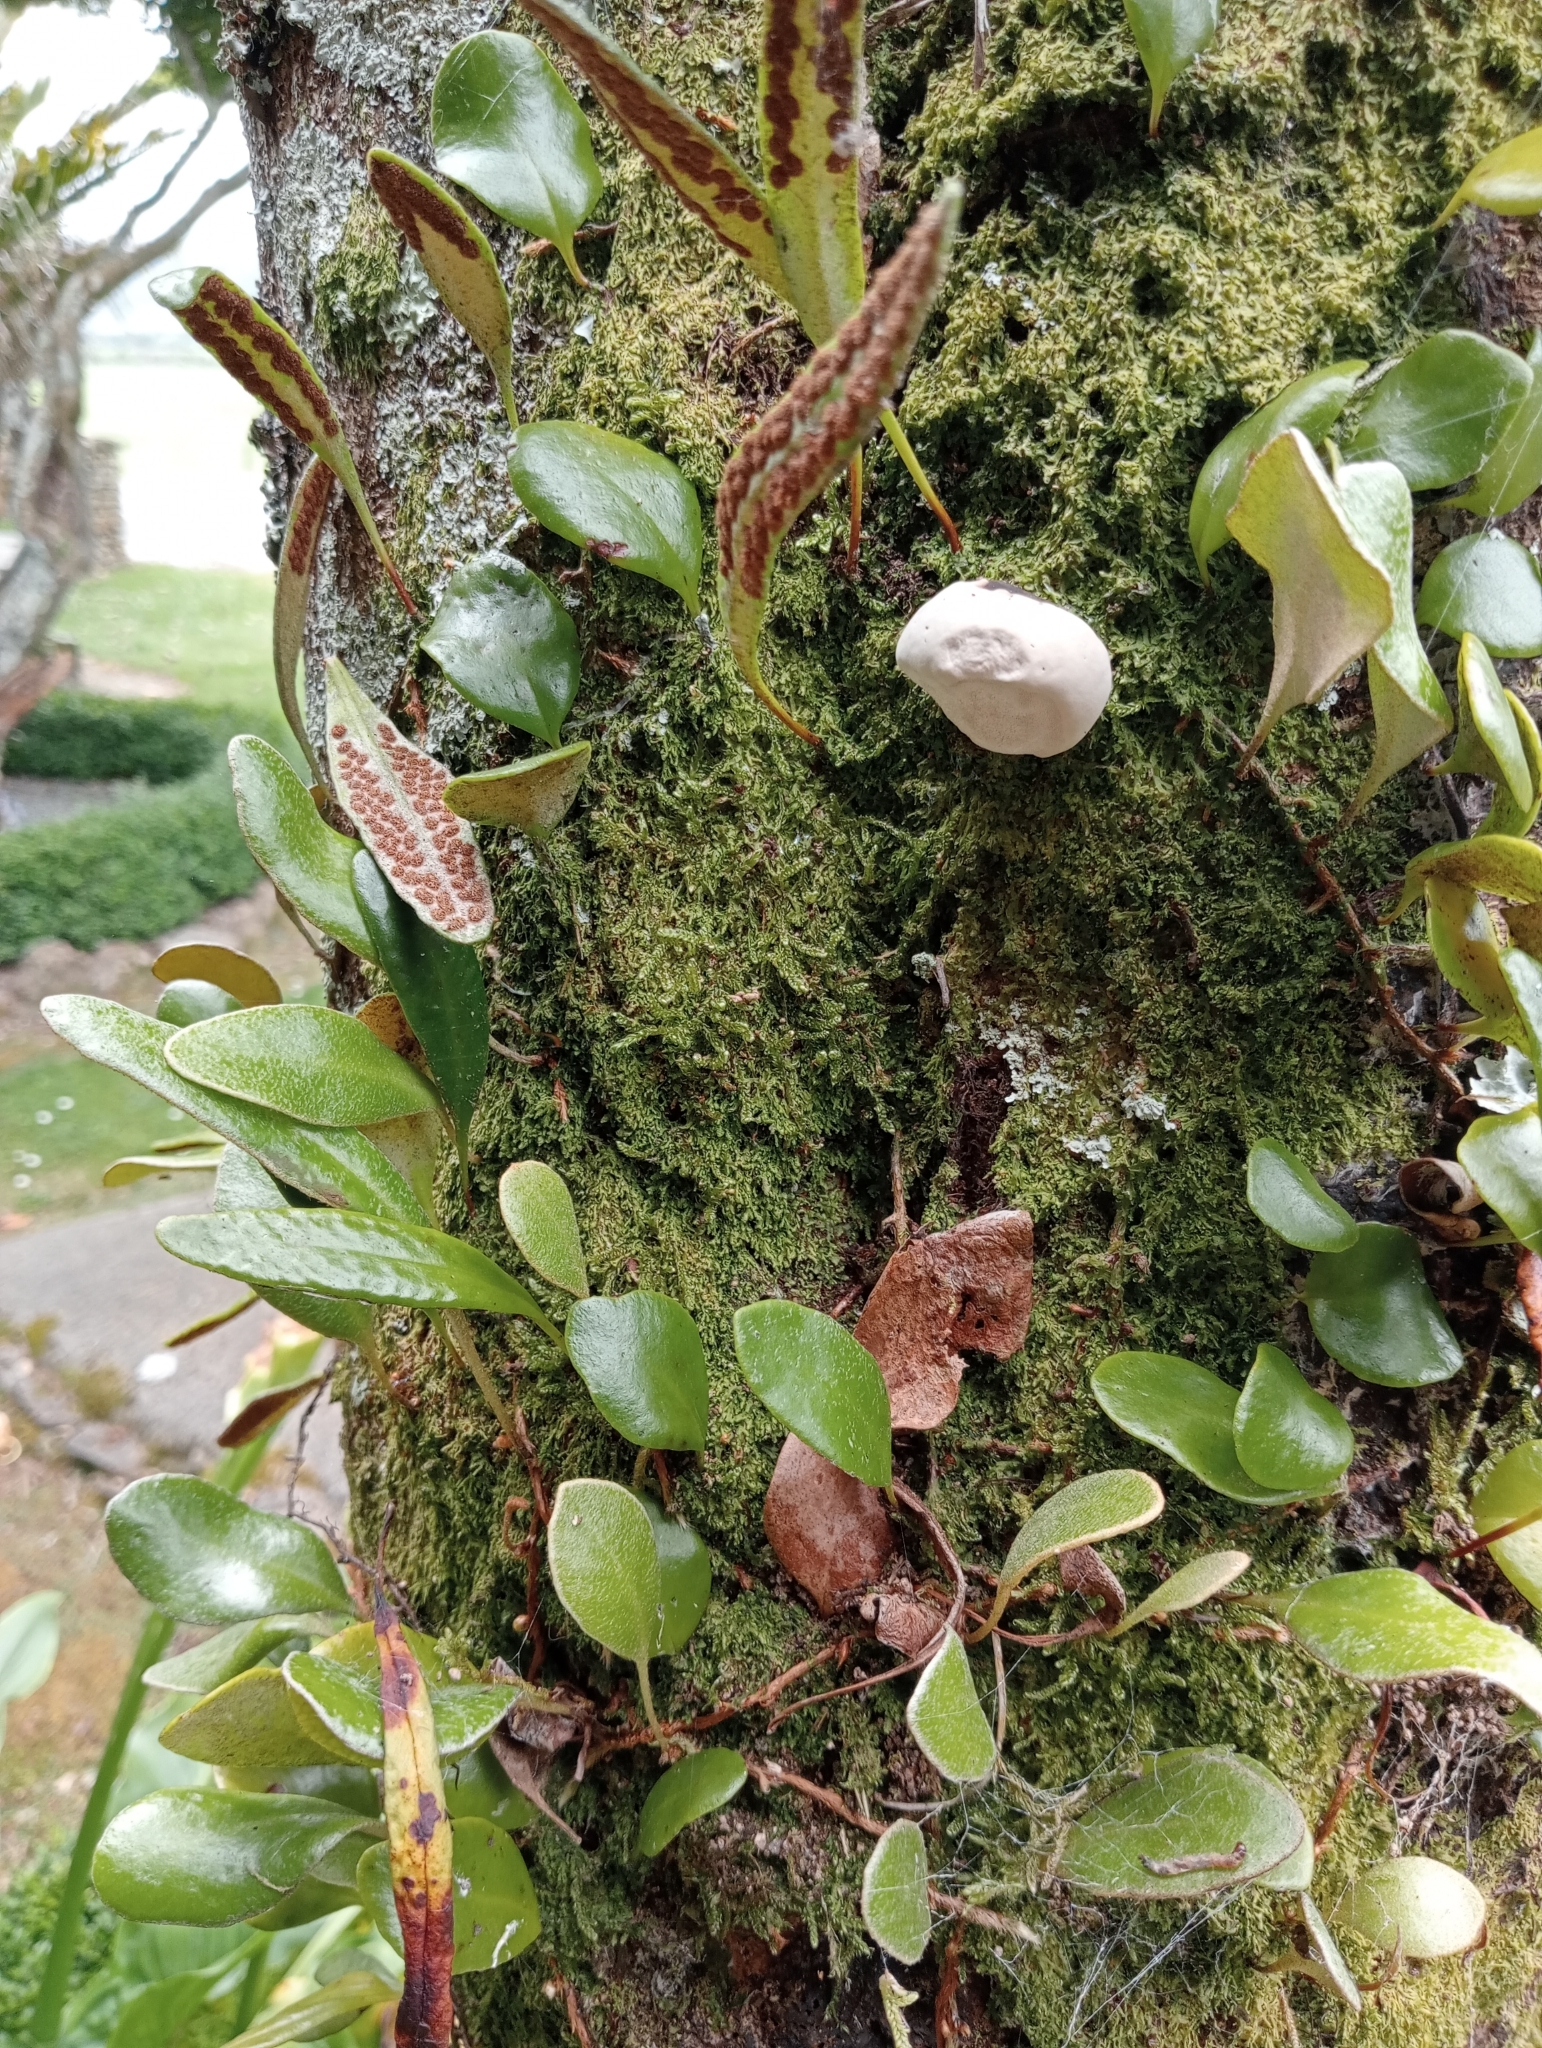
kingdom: Plantae
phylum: Tracheophyta
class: Polypodiopsida
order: Polypodiales
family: Polypodiaceae
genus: Pyrrosia
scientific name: Pyrrosia eleagnifolia
